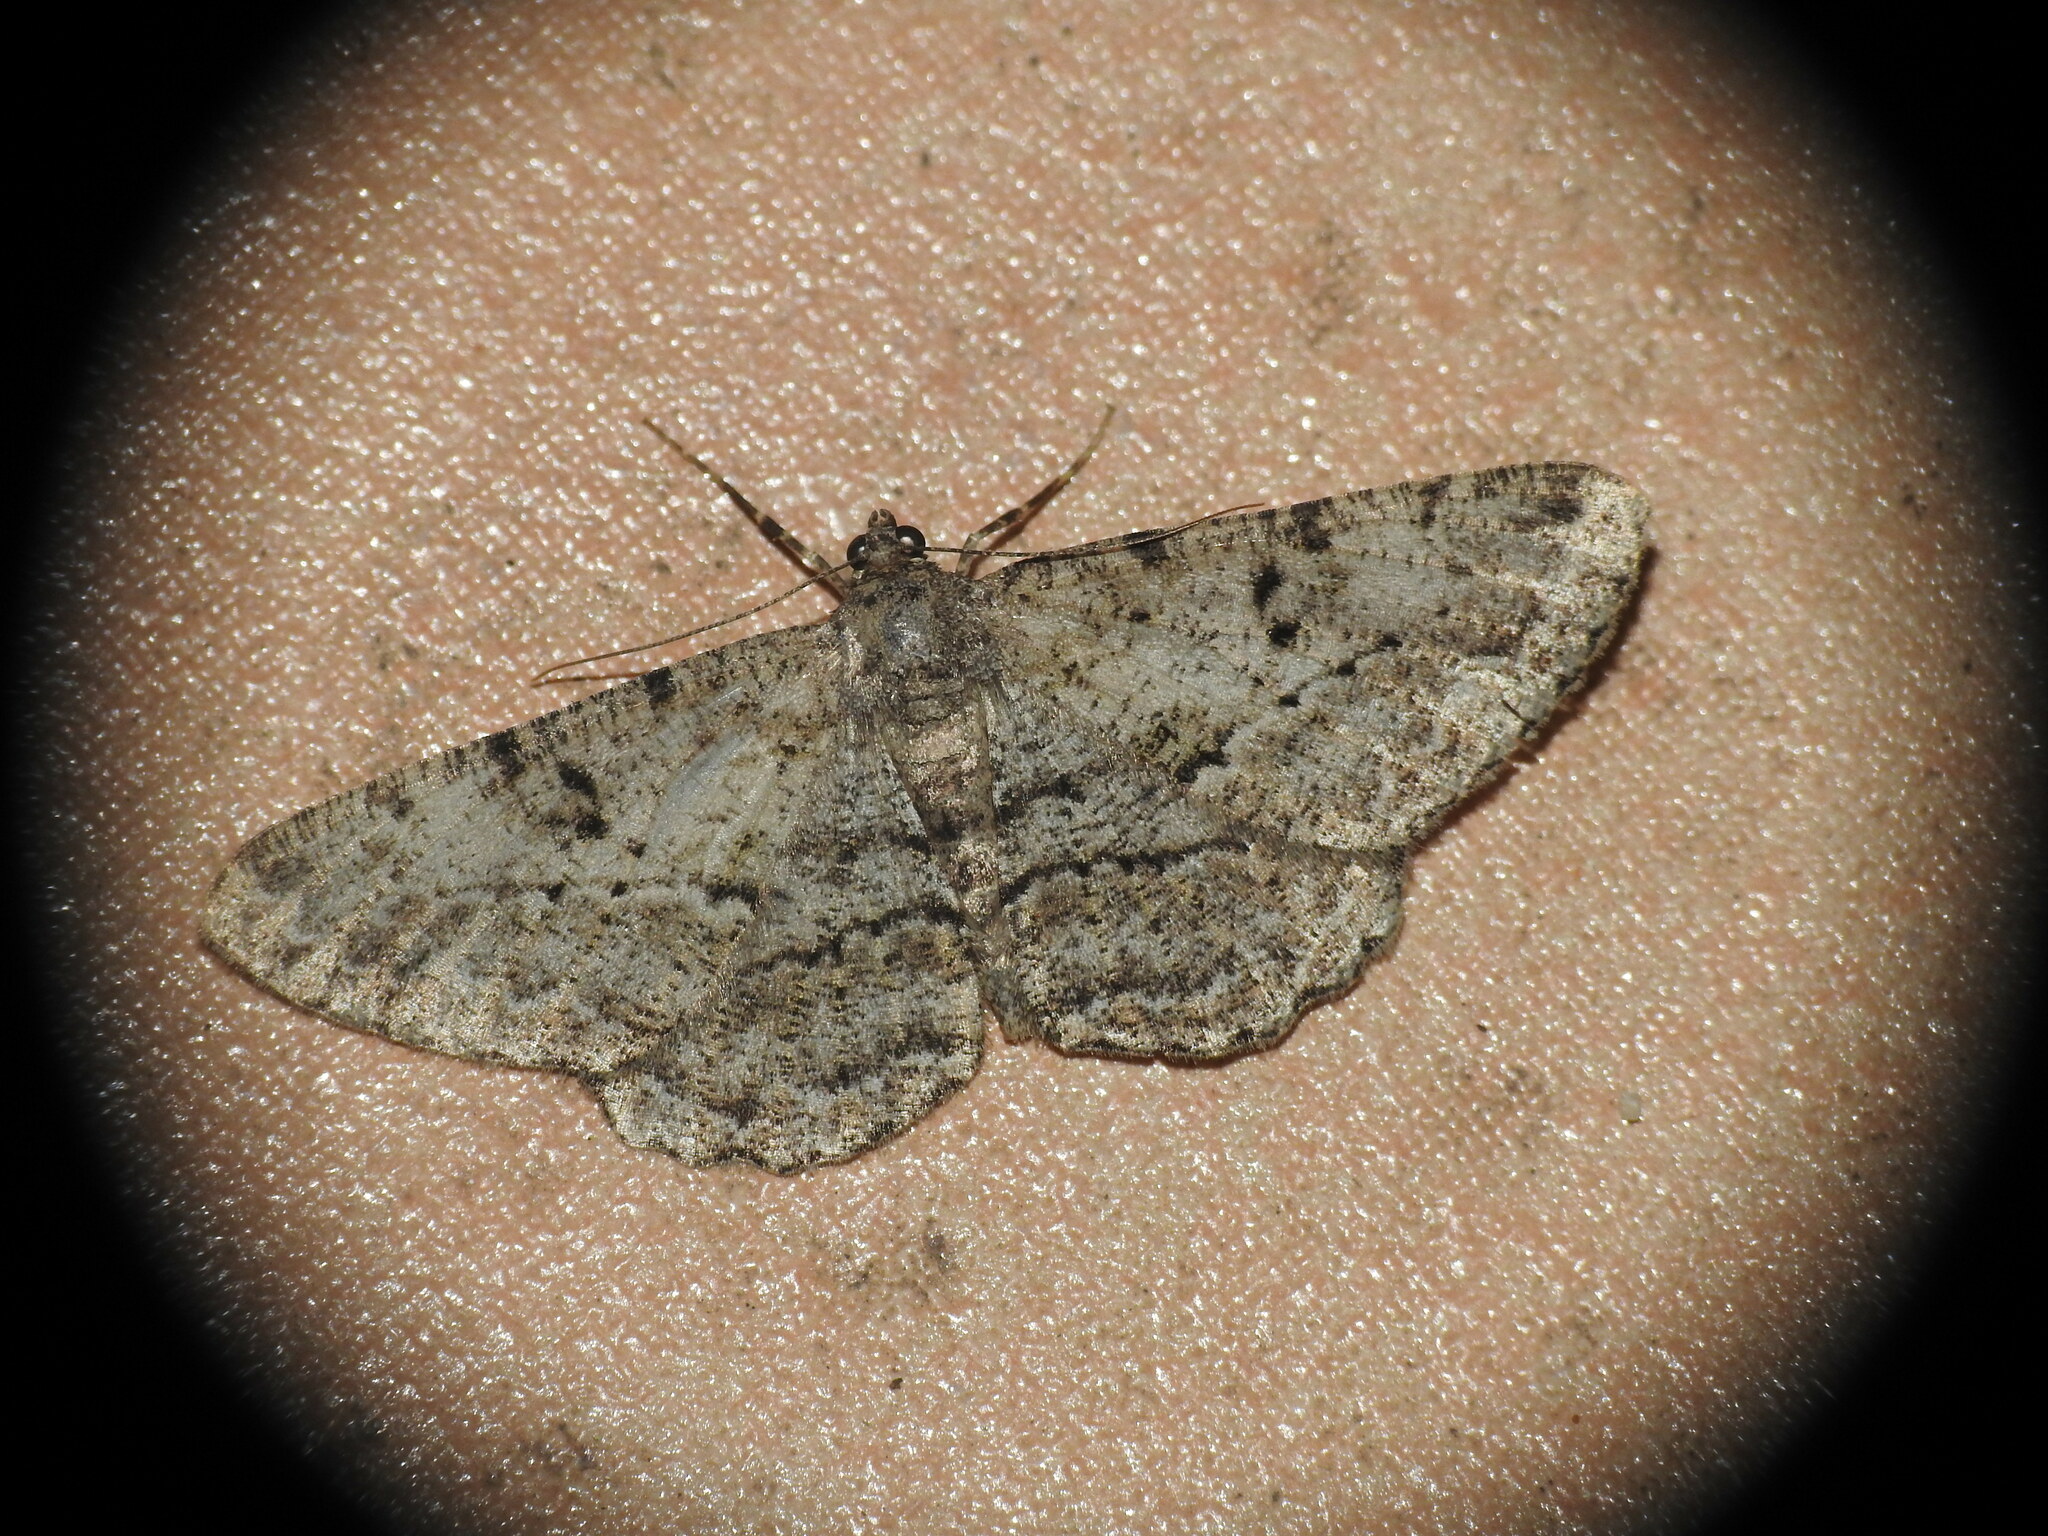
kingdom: Animalia
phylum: Arthropoda
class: Insecta
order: Lepidoptera
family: Geometridae
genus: Peribatodes
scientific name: Peribatodes rhomboidaria
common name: Willow beauty
